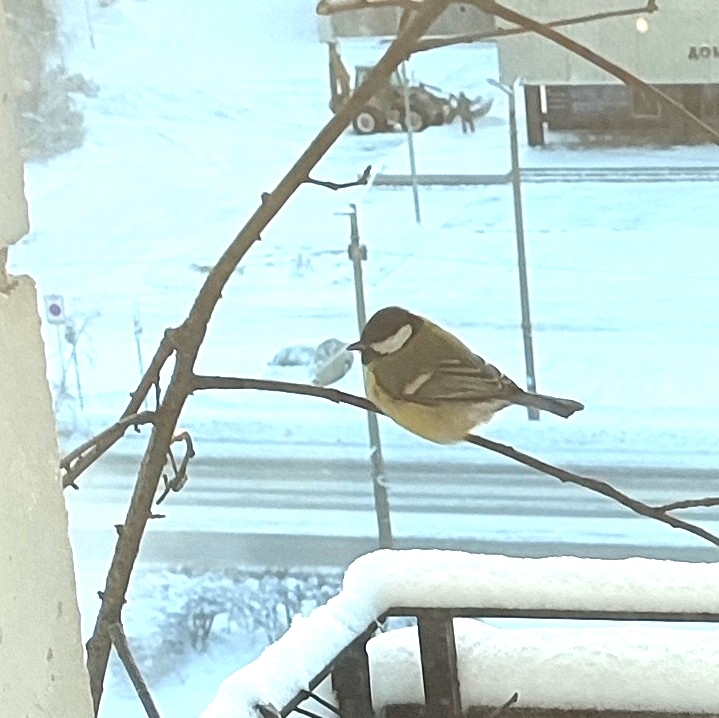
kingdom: Animalia
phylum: Chordata
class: Aves
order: Passeriformes
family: Paridae
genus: Parus
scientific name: Parus major
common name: Great tit
